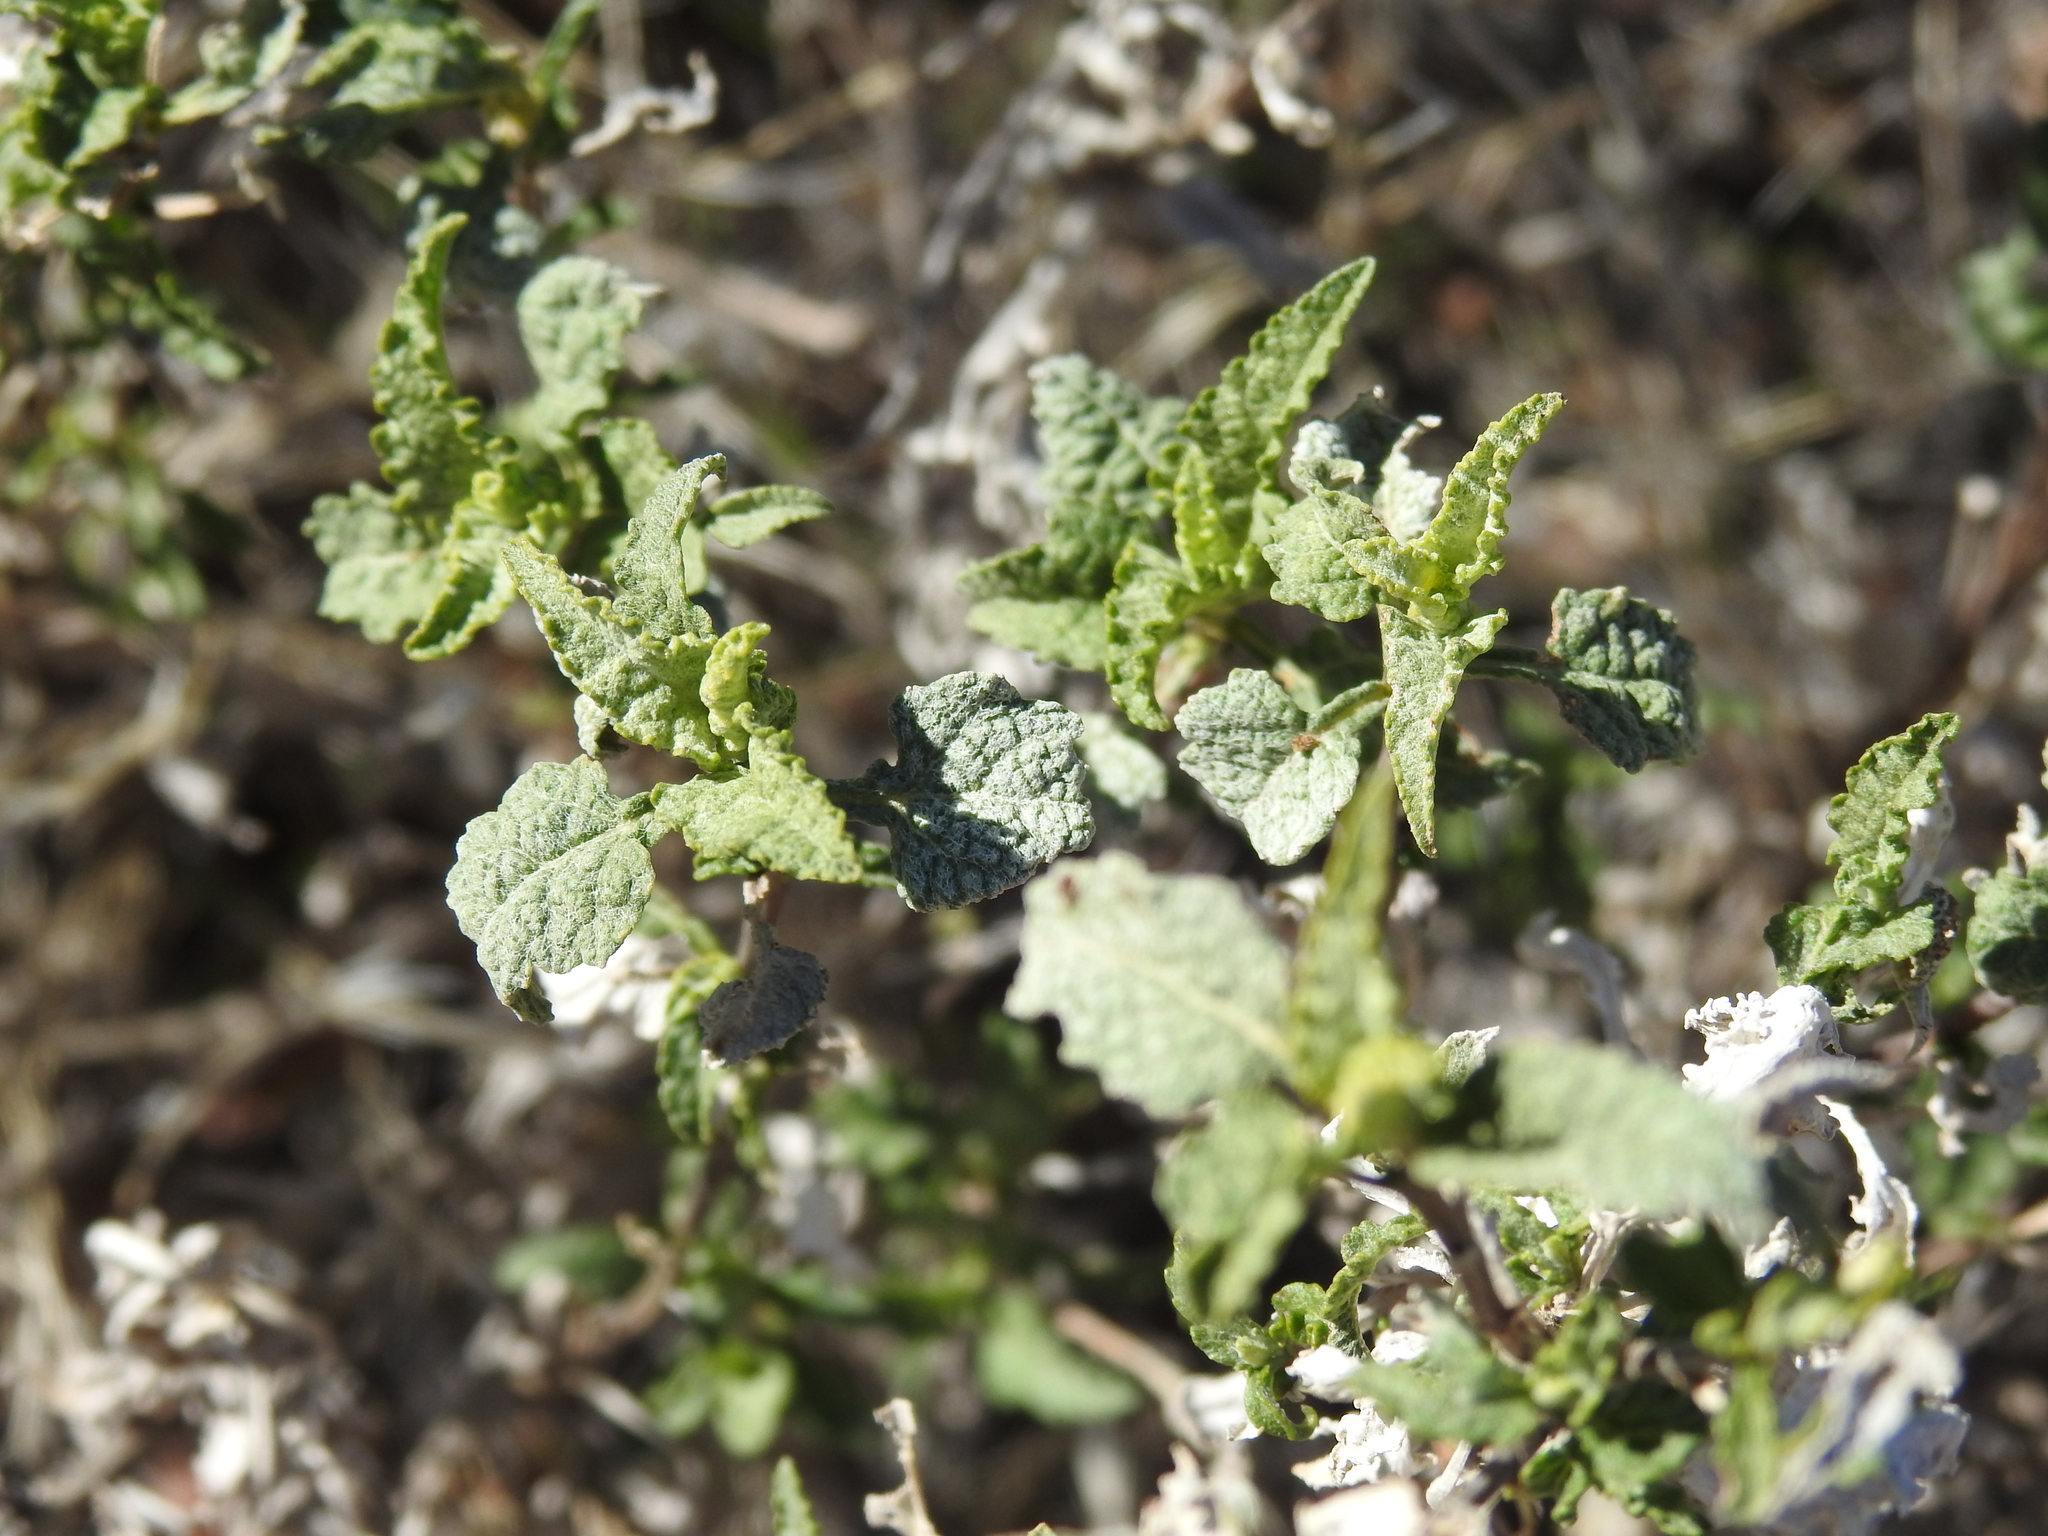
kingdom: Plantae
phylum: Tracheophyta
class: Magnoliopsida
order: Asterales
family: Asteraceae
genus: Ambrosia
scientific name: Ambrosia deltoidea
